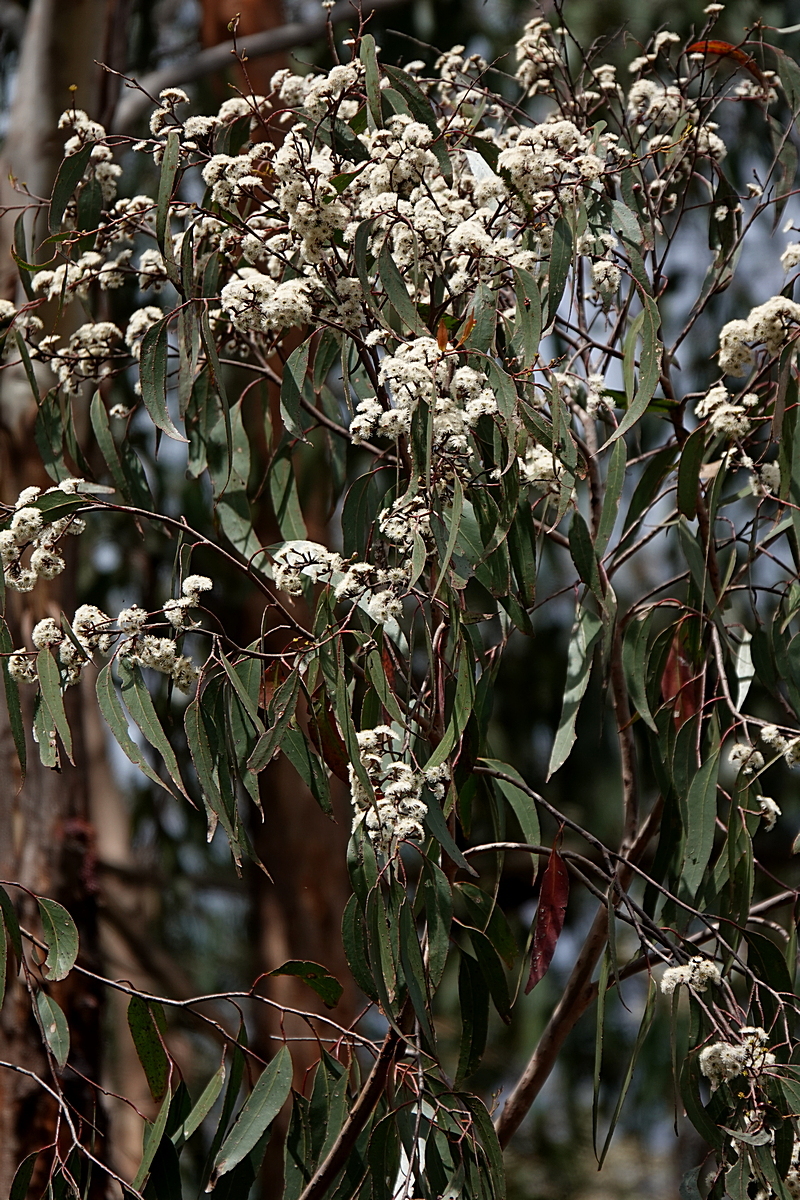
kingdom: Plantae
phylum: Tracheophyta
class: Magnoliopsida
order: Myrtales
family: Myrtaceae
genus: Eucalyptus
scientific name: Eucalyptus consideniana
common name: Prickly stringybark
